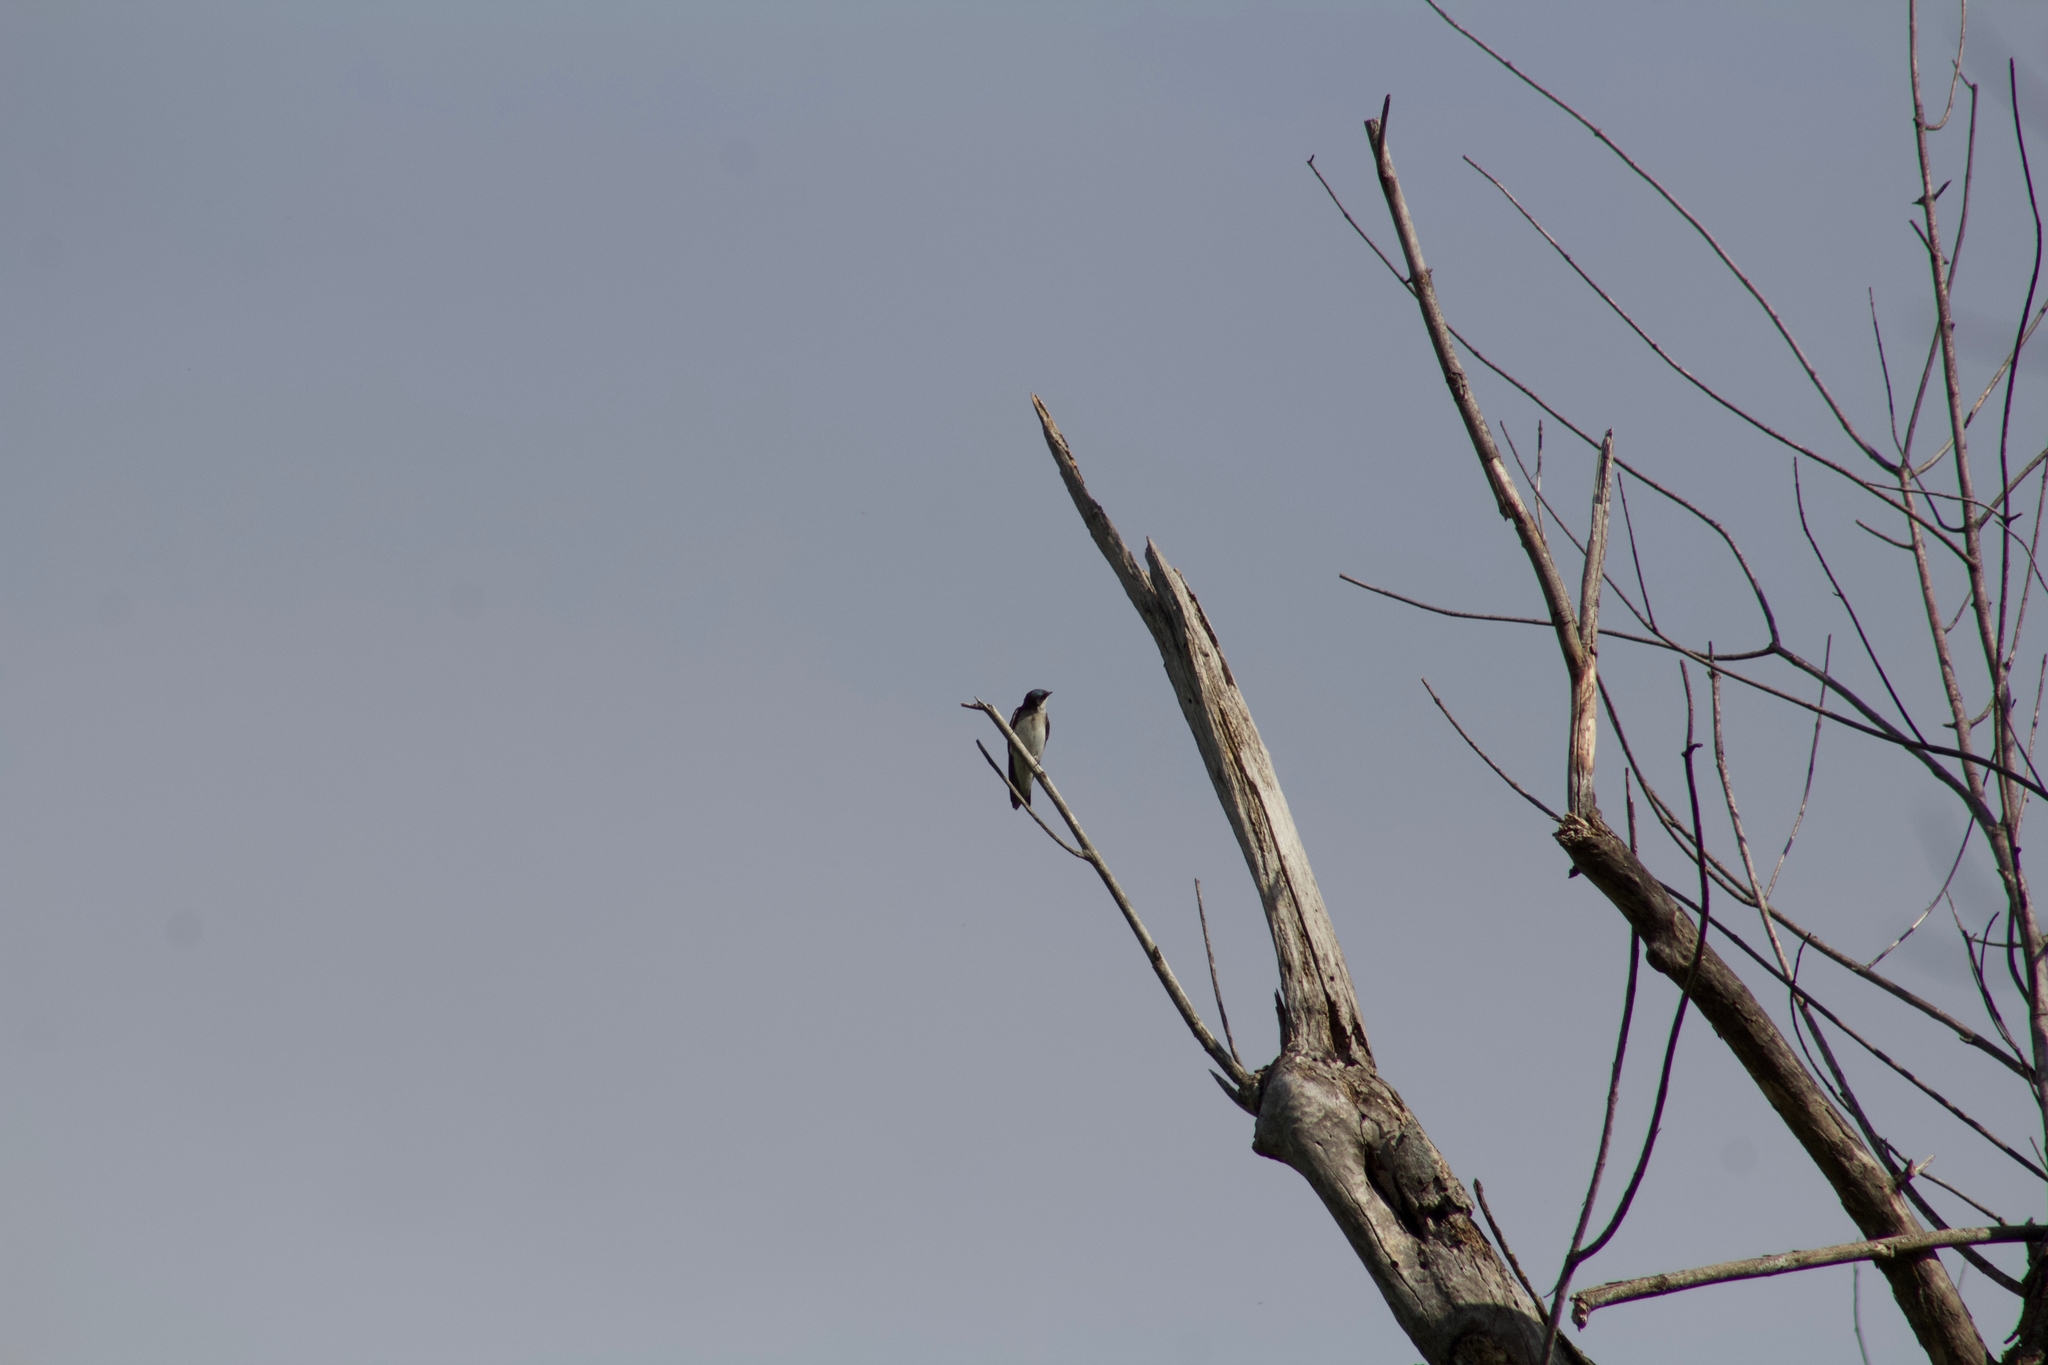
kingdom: Animalia
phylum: Chordata
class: Aves
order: Passeriformes
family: Hirundinidae
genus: Tachycineta
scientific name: Tachycineta bicolor
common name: Tree swallow
